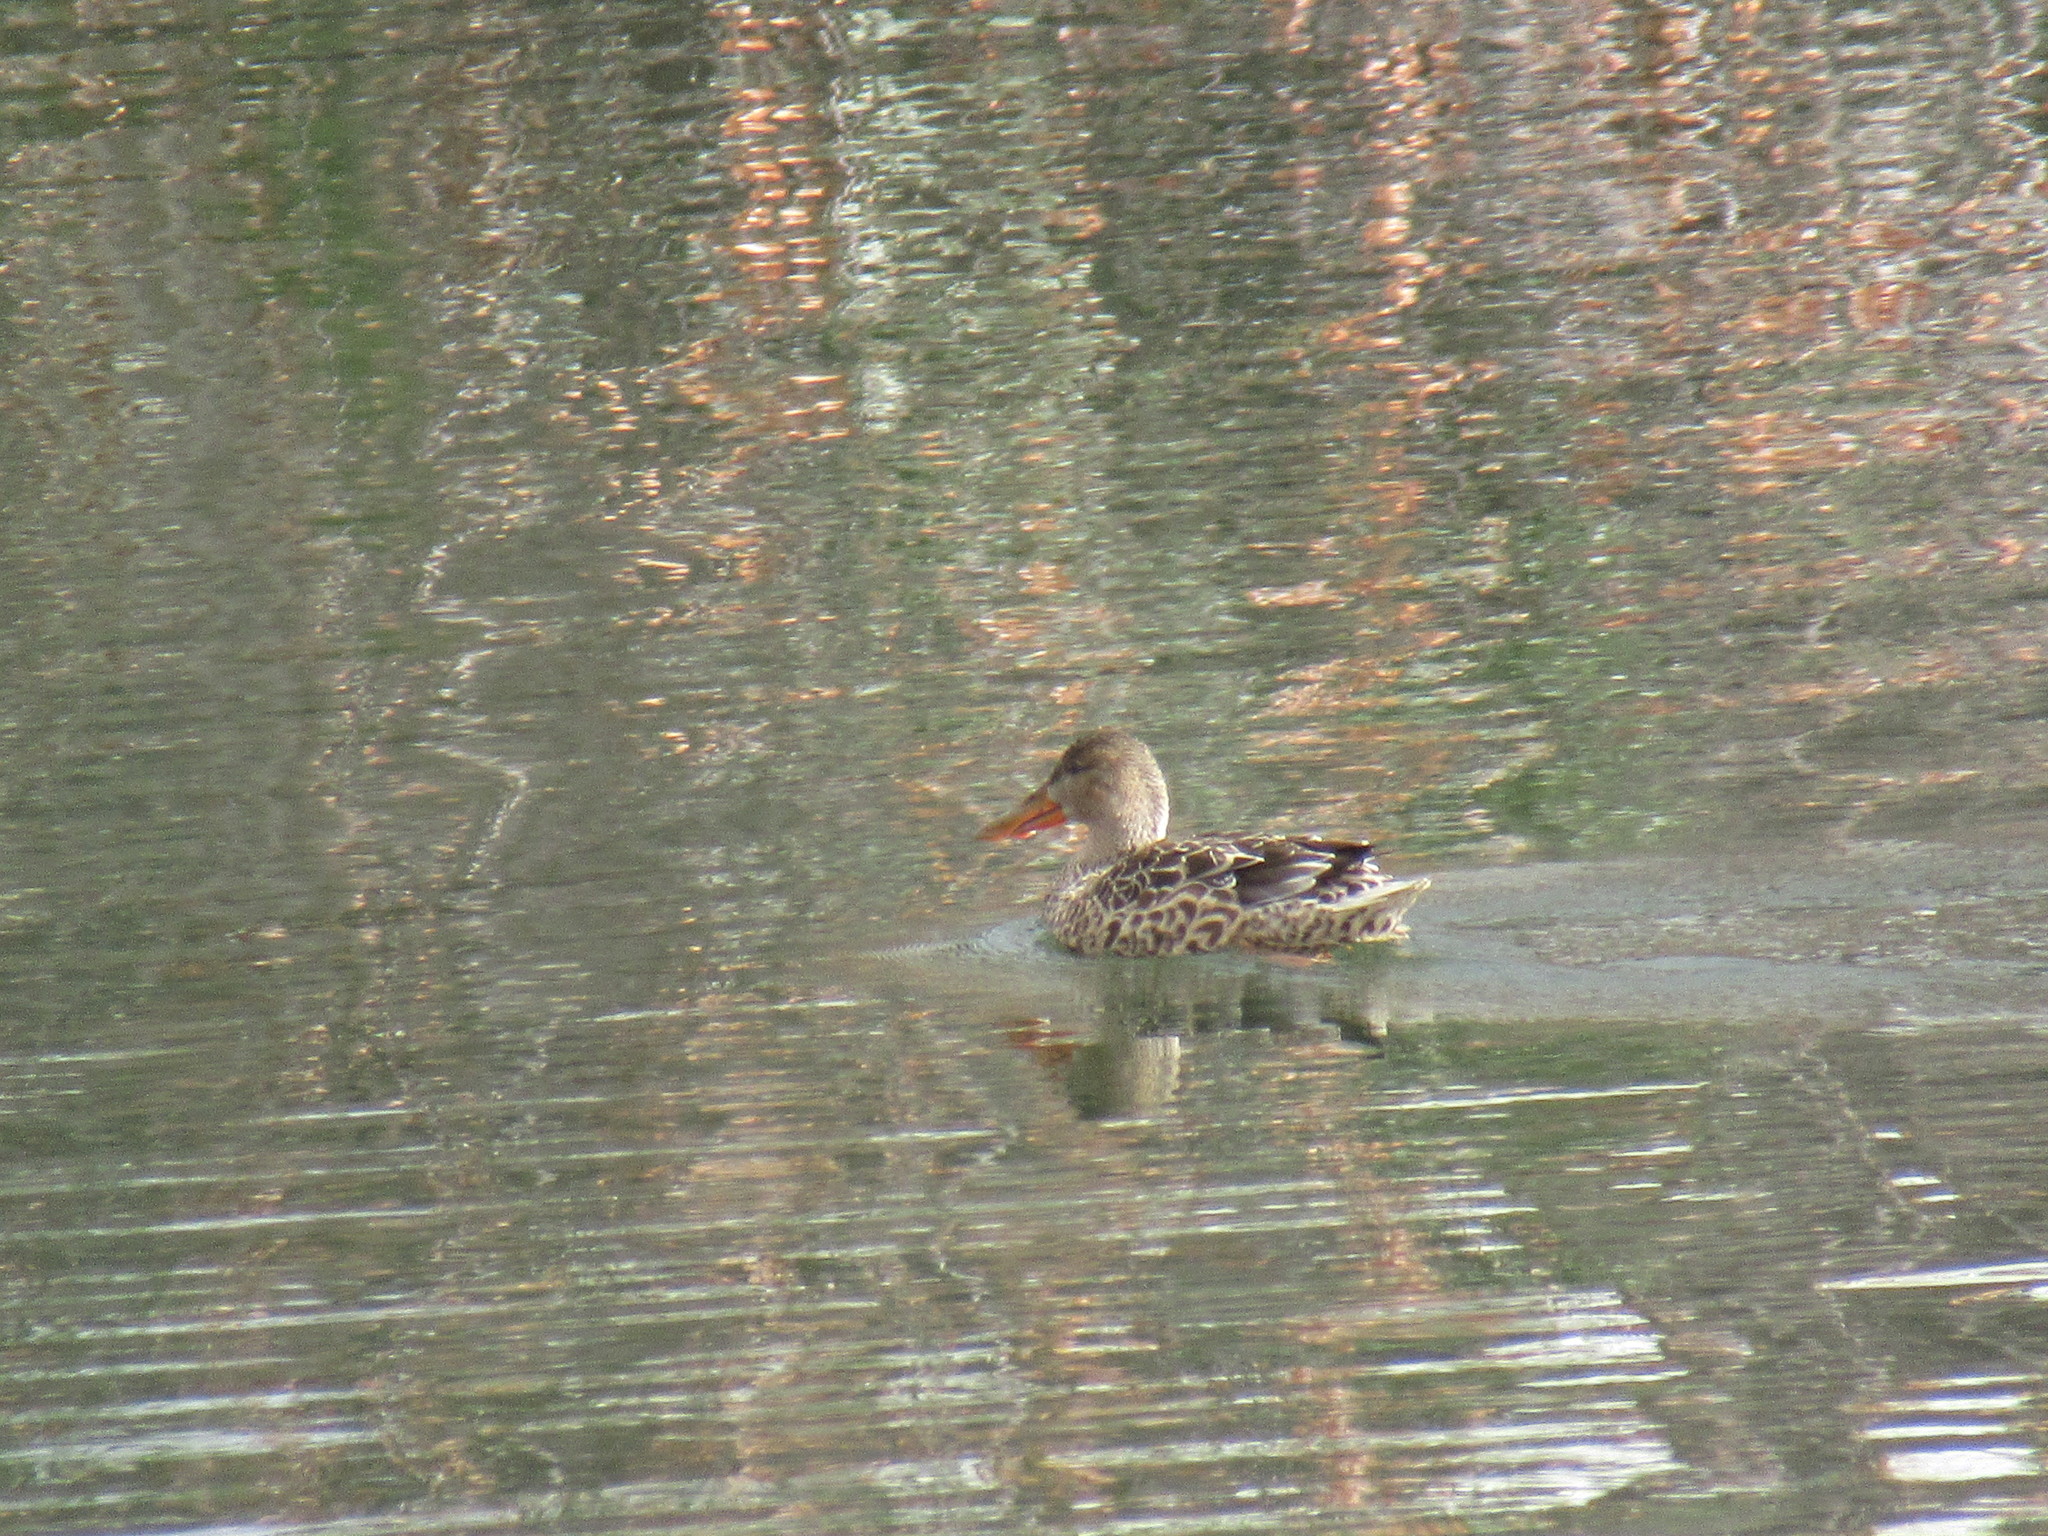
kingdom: Animalia
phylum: Chordata
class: Aves
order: Anseriformes
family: Anatidae
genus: Spatula
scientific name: Spatula clypeata
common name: Northern shoveler
